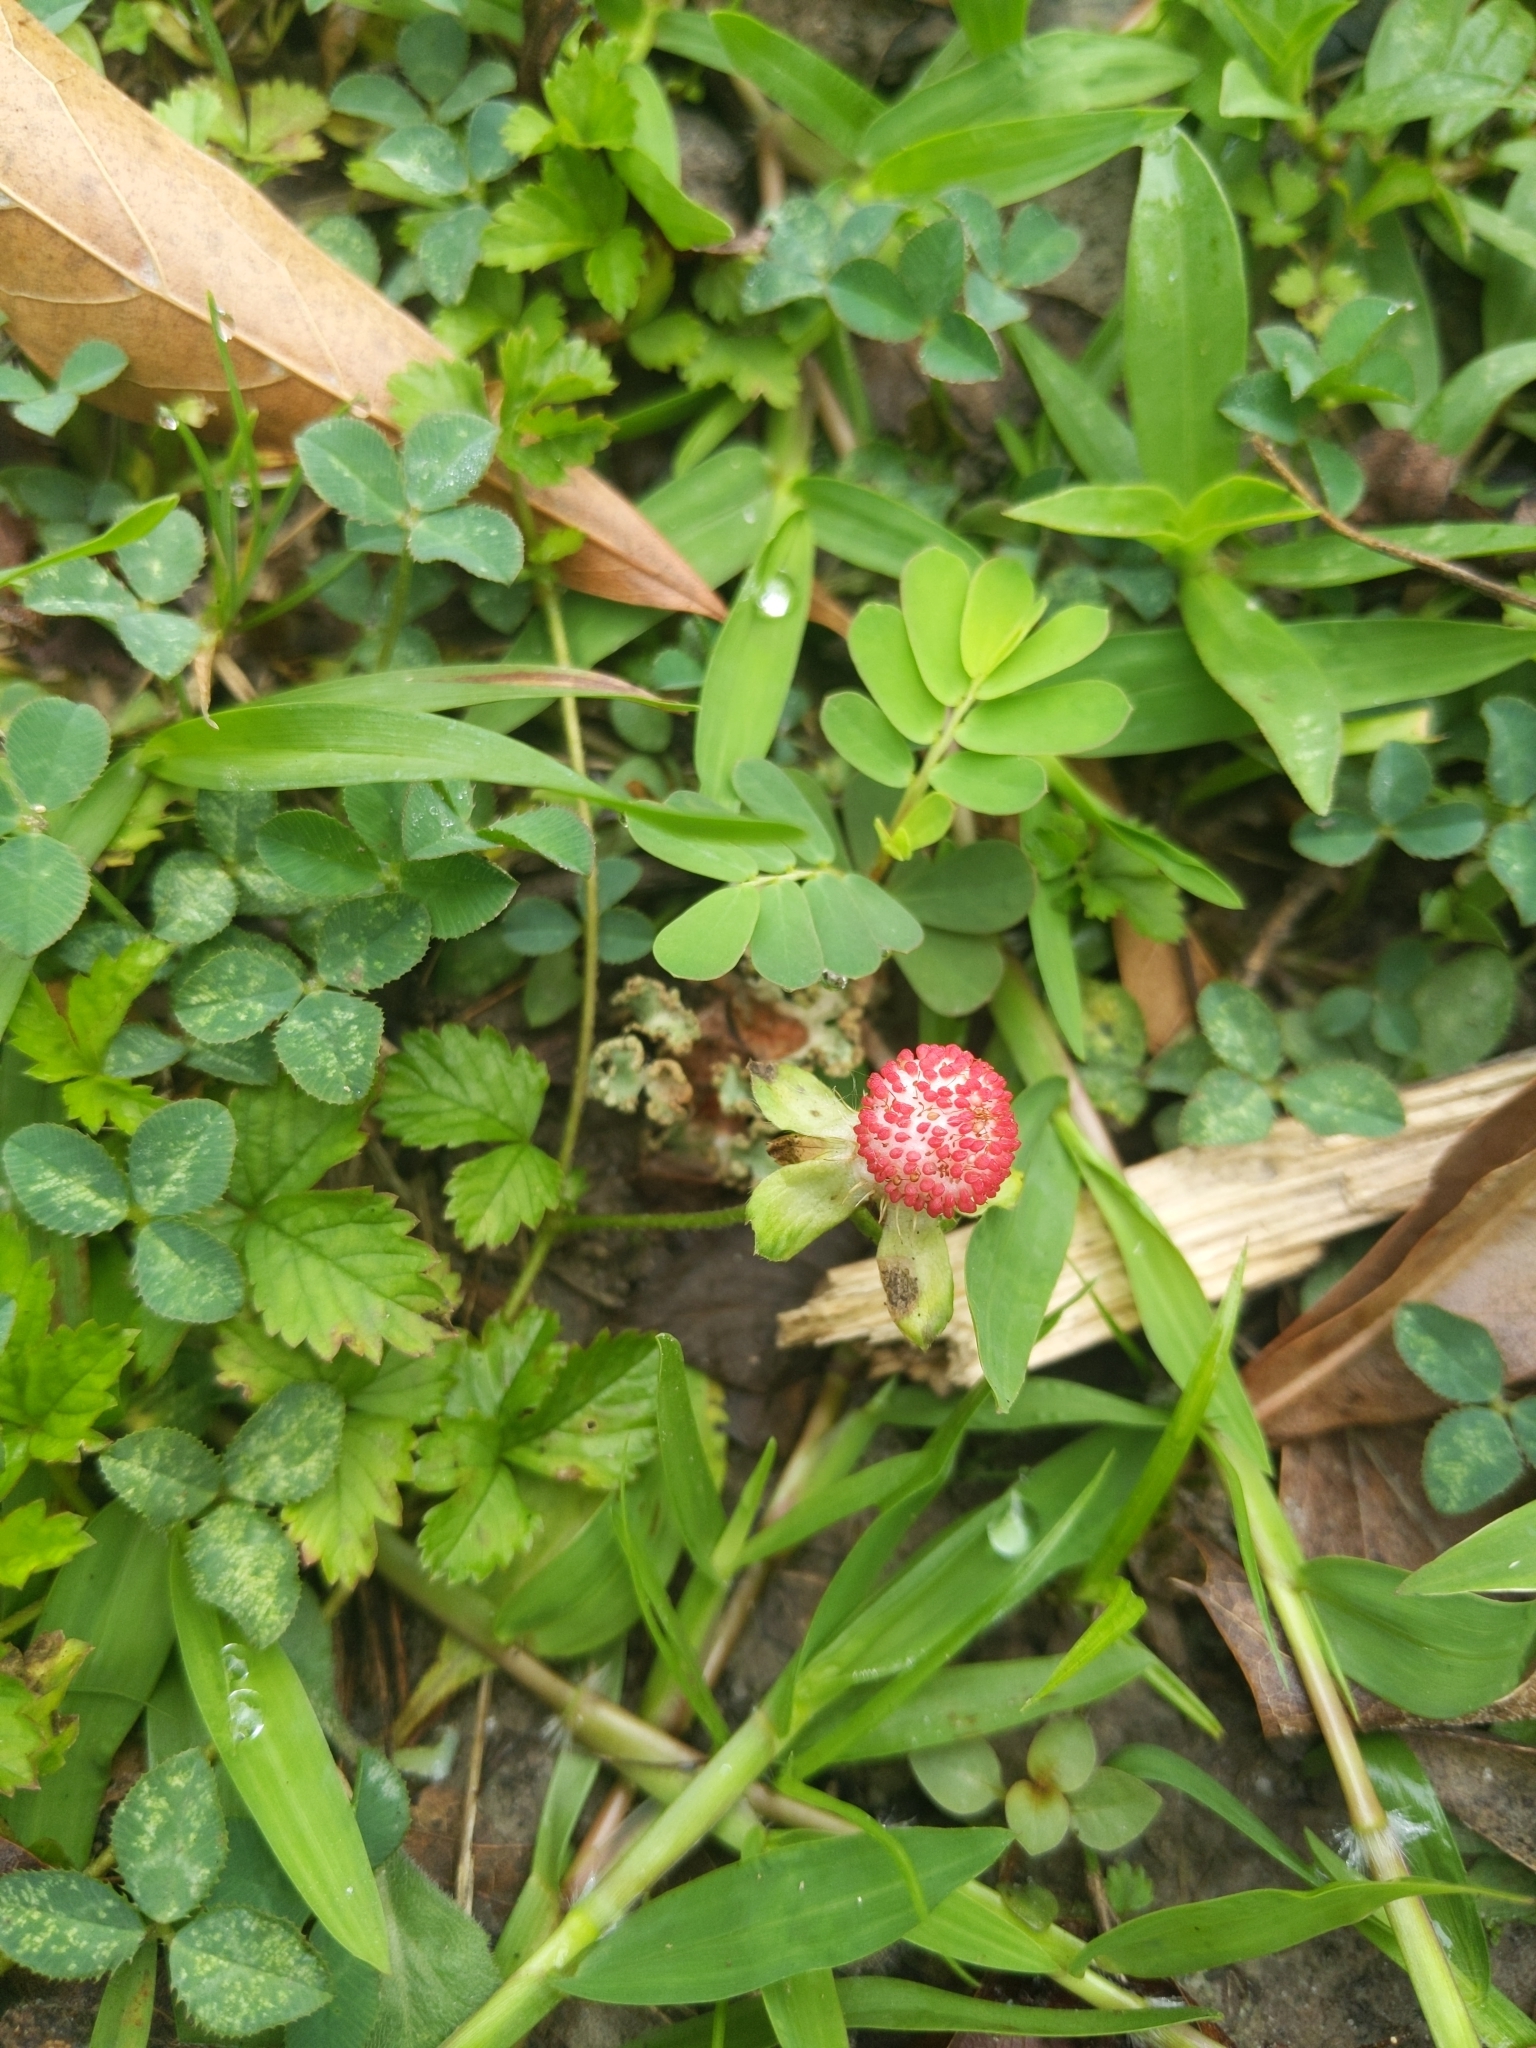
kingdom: Plantae
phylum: Tracheophyta
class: Magnoliopsida
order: Rosales
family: Rosaceae
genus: Potentilla
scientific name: Potentilla indica
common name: Yellow-flowered strawberry
